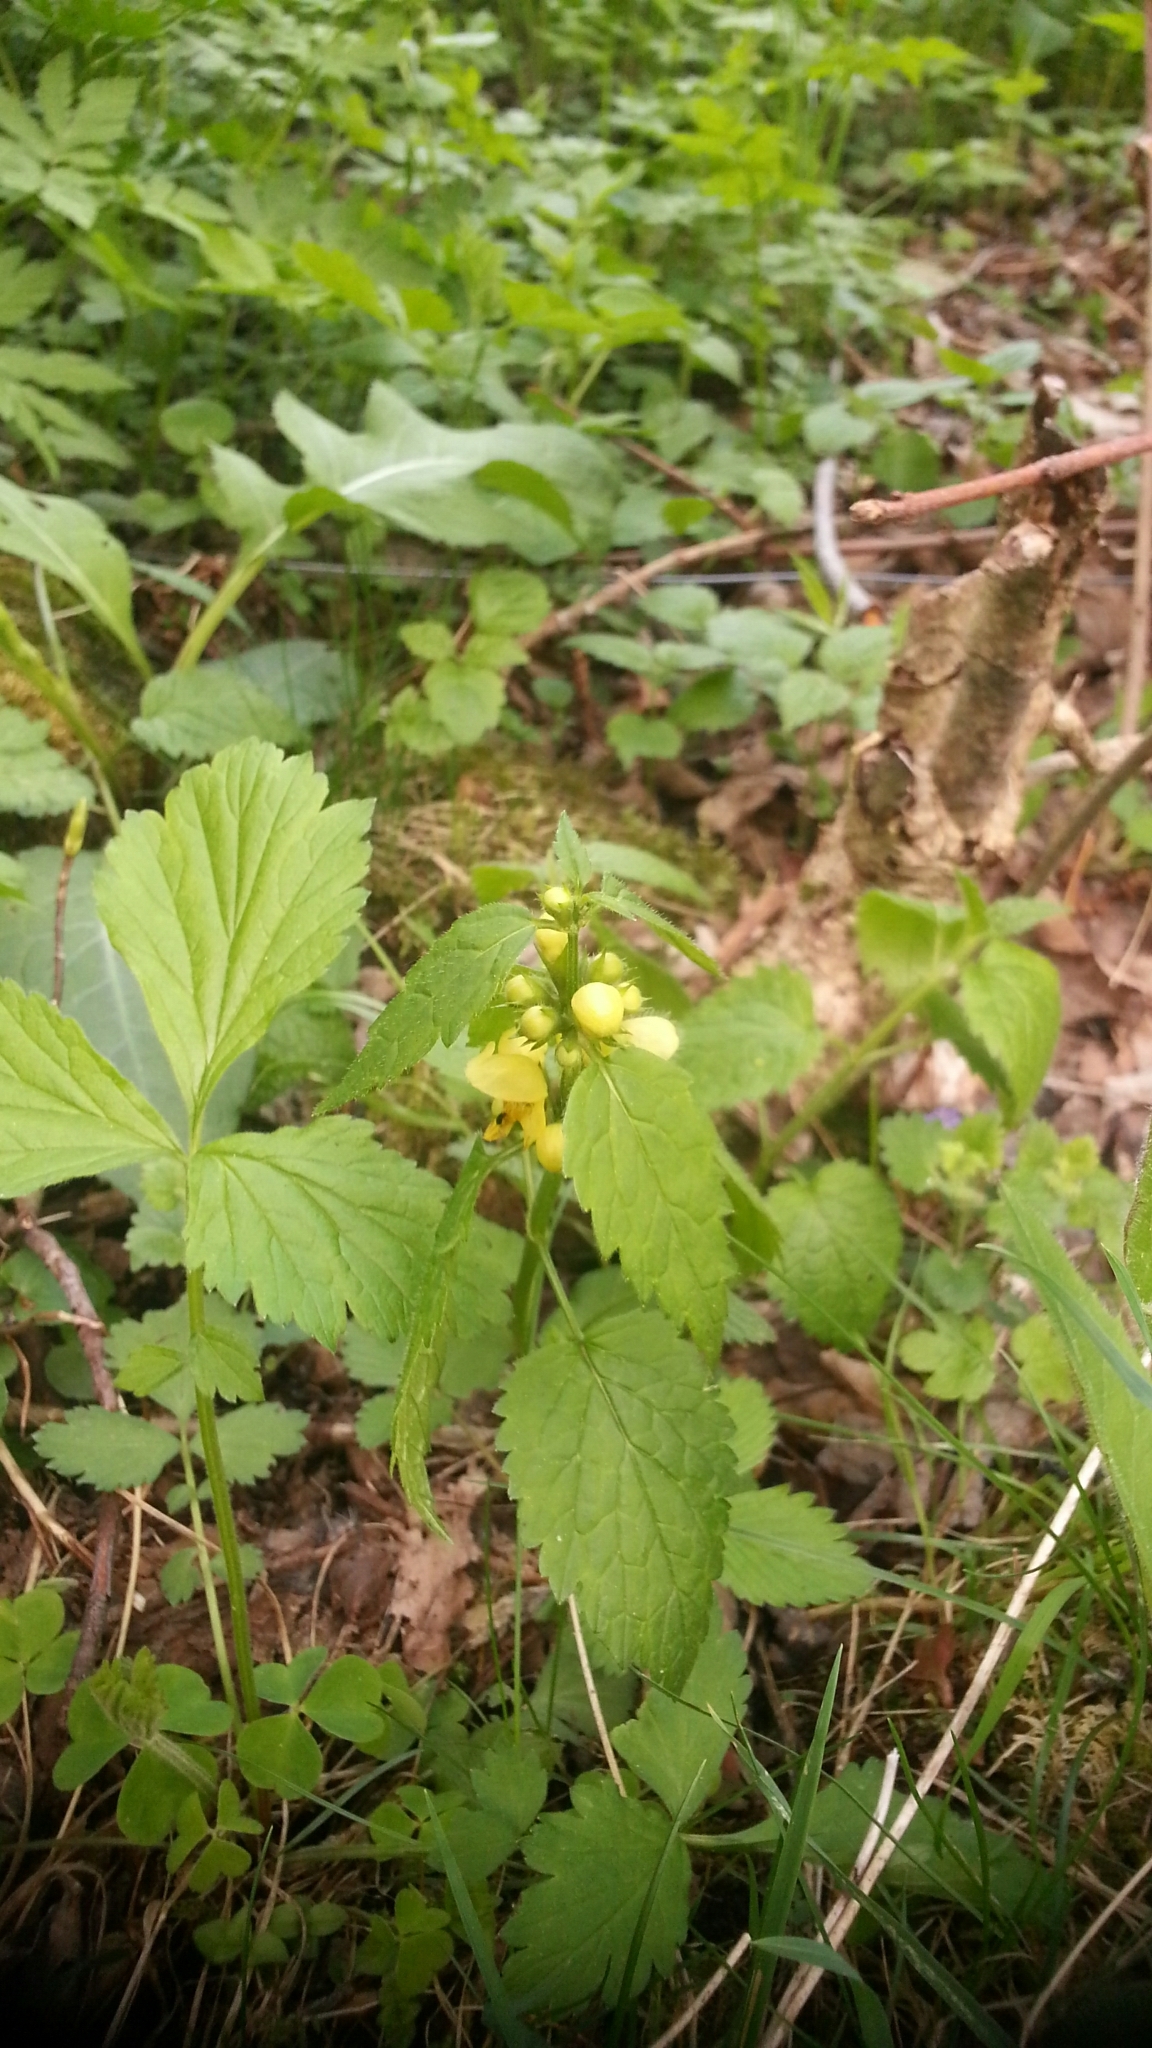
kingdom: Plantae
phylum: Tracheophyta
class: Magnoliopsida
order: Lamiales
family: Lamiaceae
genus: Lamium
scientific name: Lamium galeobdolon
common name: Yellow archangel
